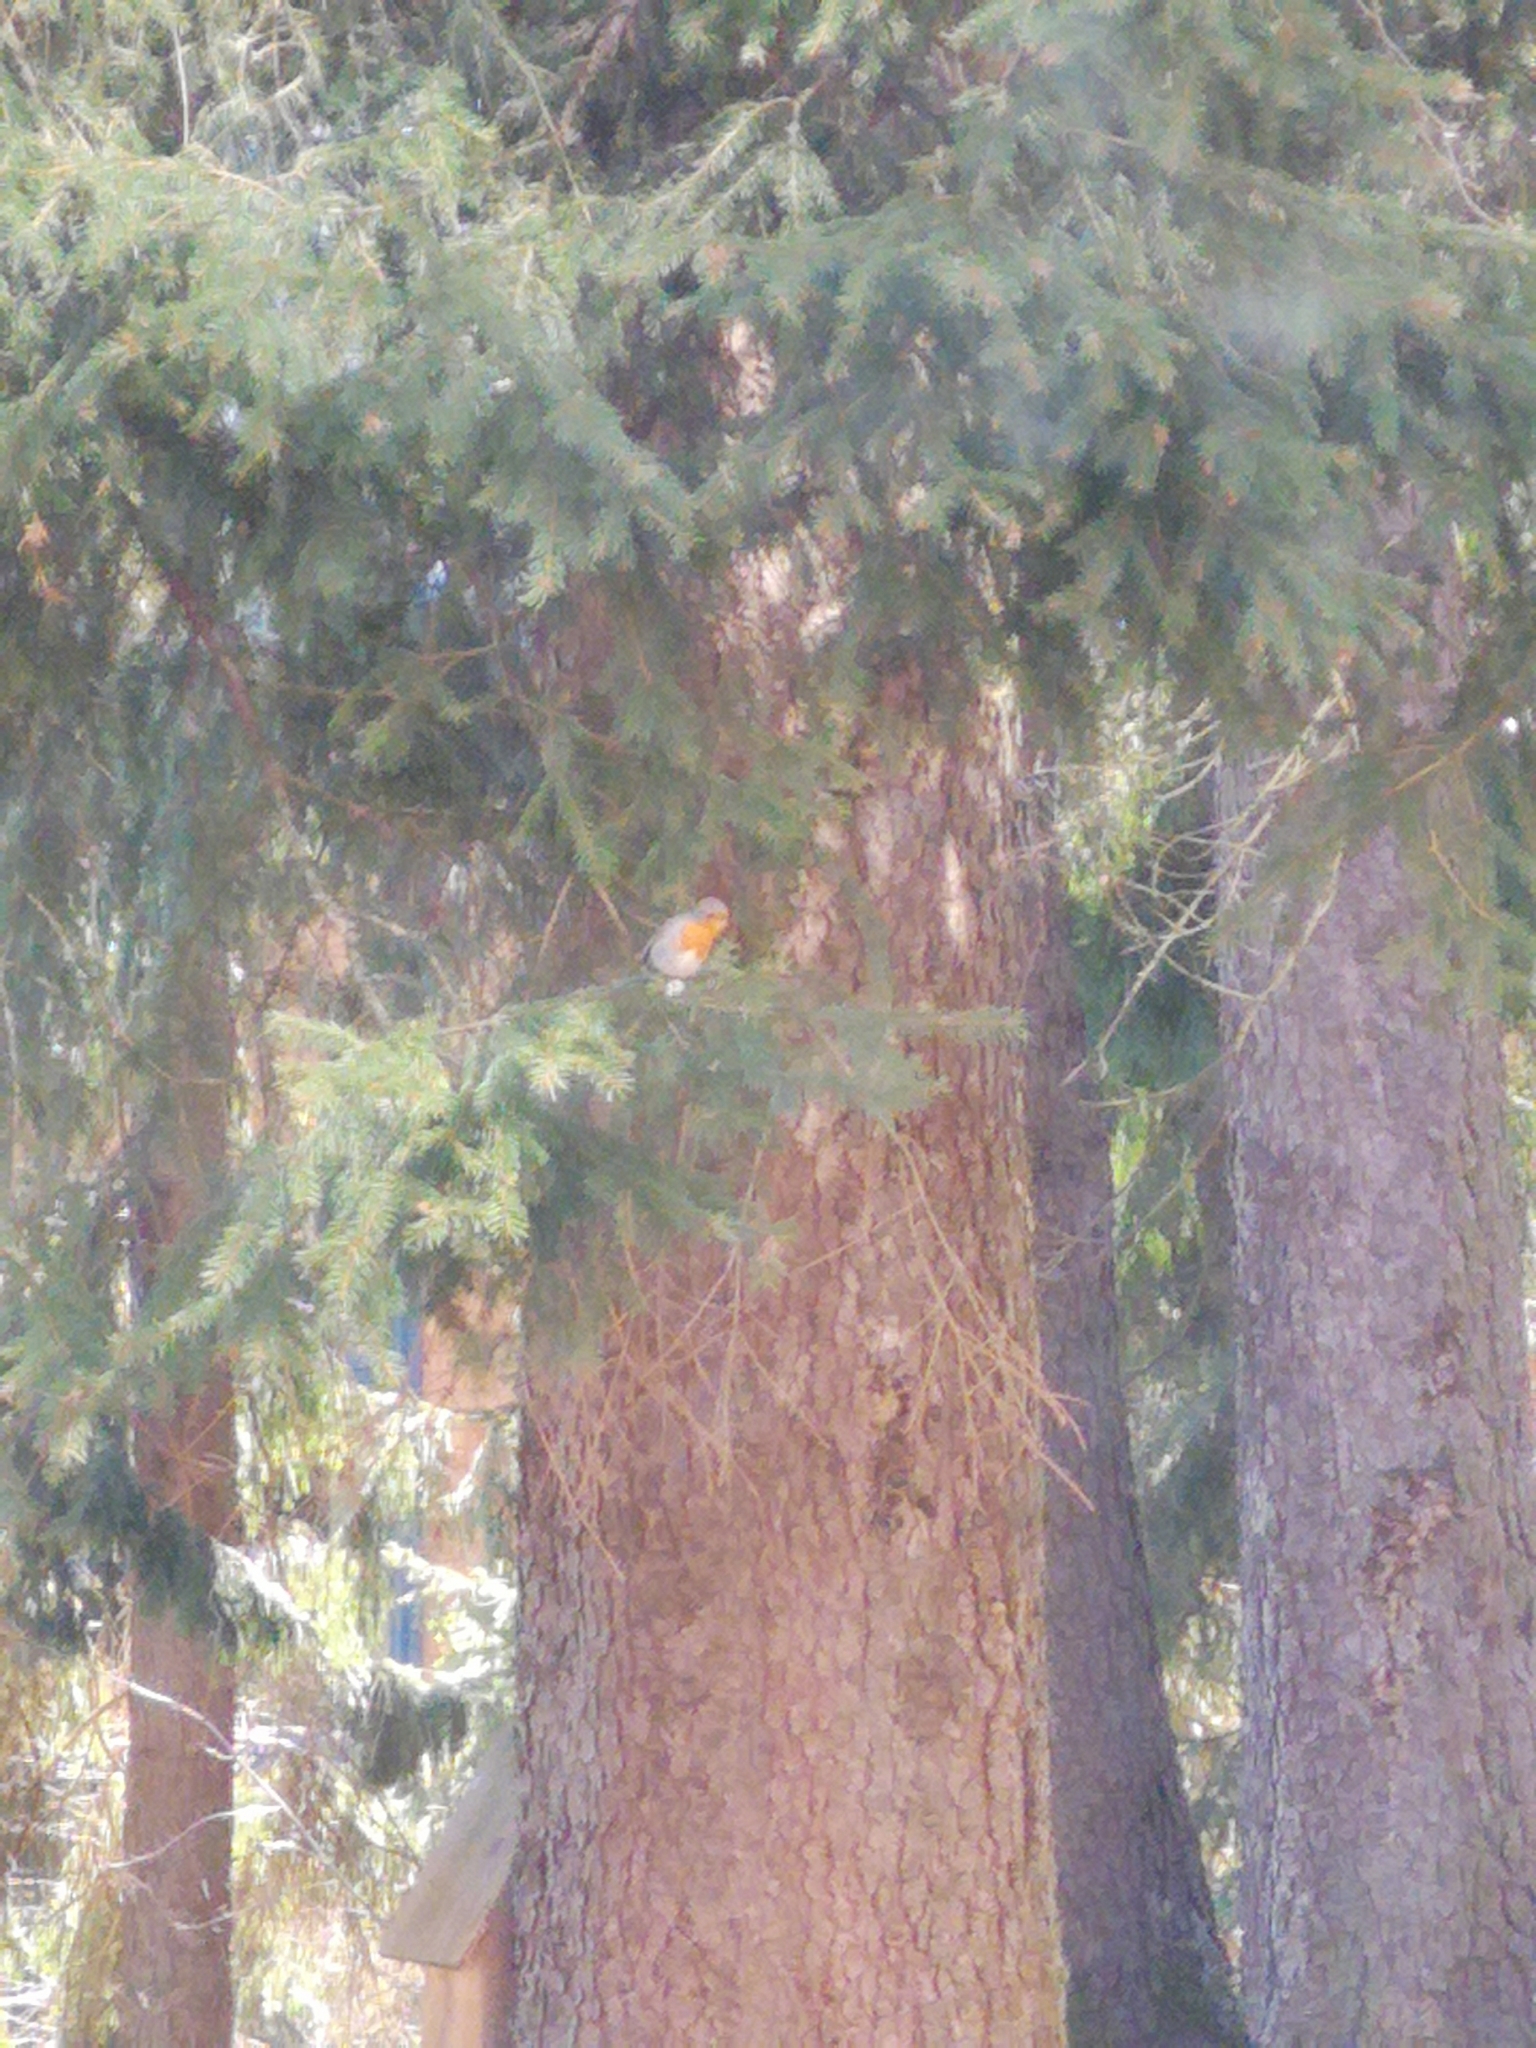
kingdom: Animalia
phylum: Chordata
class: Aves
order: Passeriformes
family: Muscicapidae
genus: Erithacus
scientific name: Erithacus rubecula
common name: European robin
